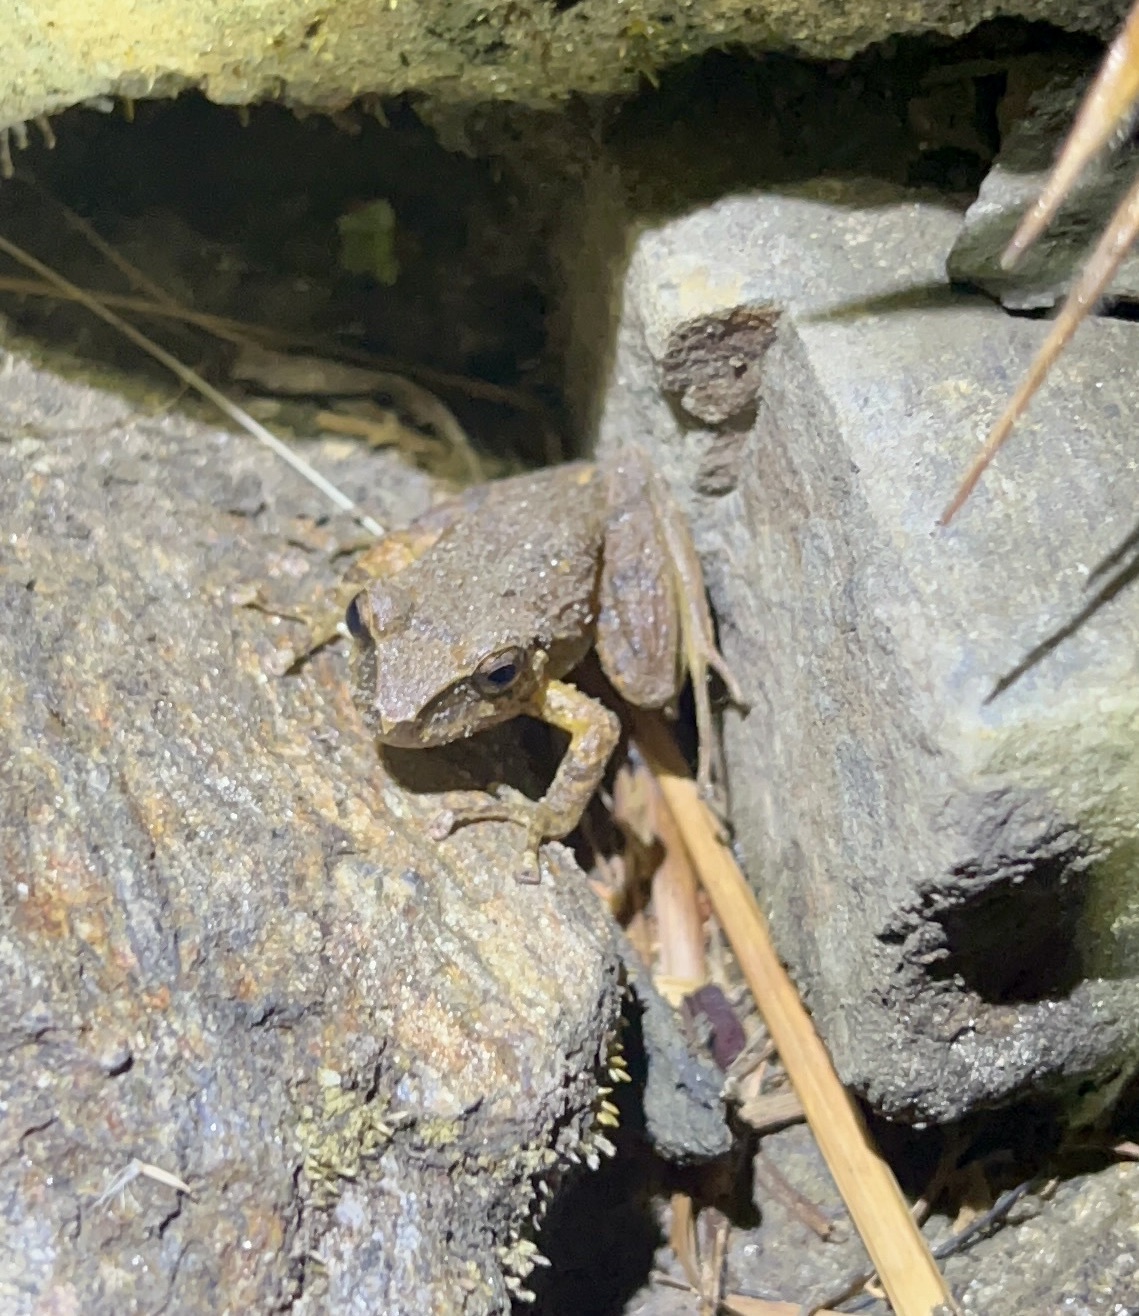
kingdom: Animalia
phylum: Chordata
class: Amphibia
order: Anura
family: Craugastoridae
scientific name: Craugastoridae
